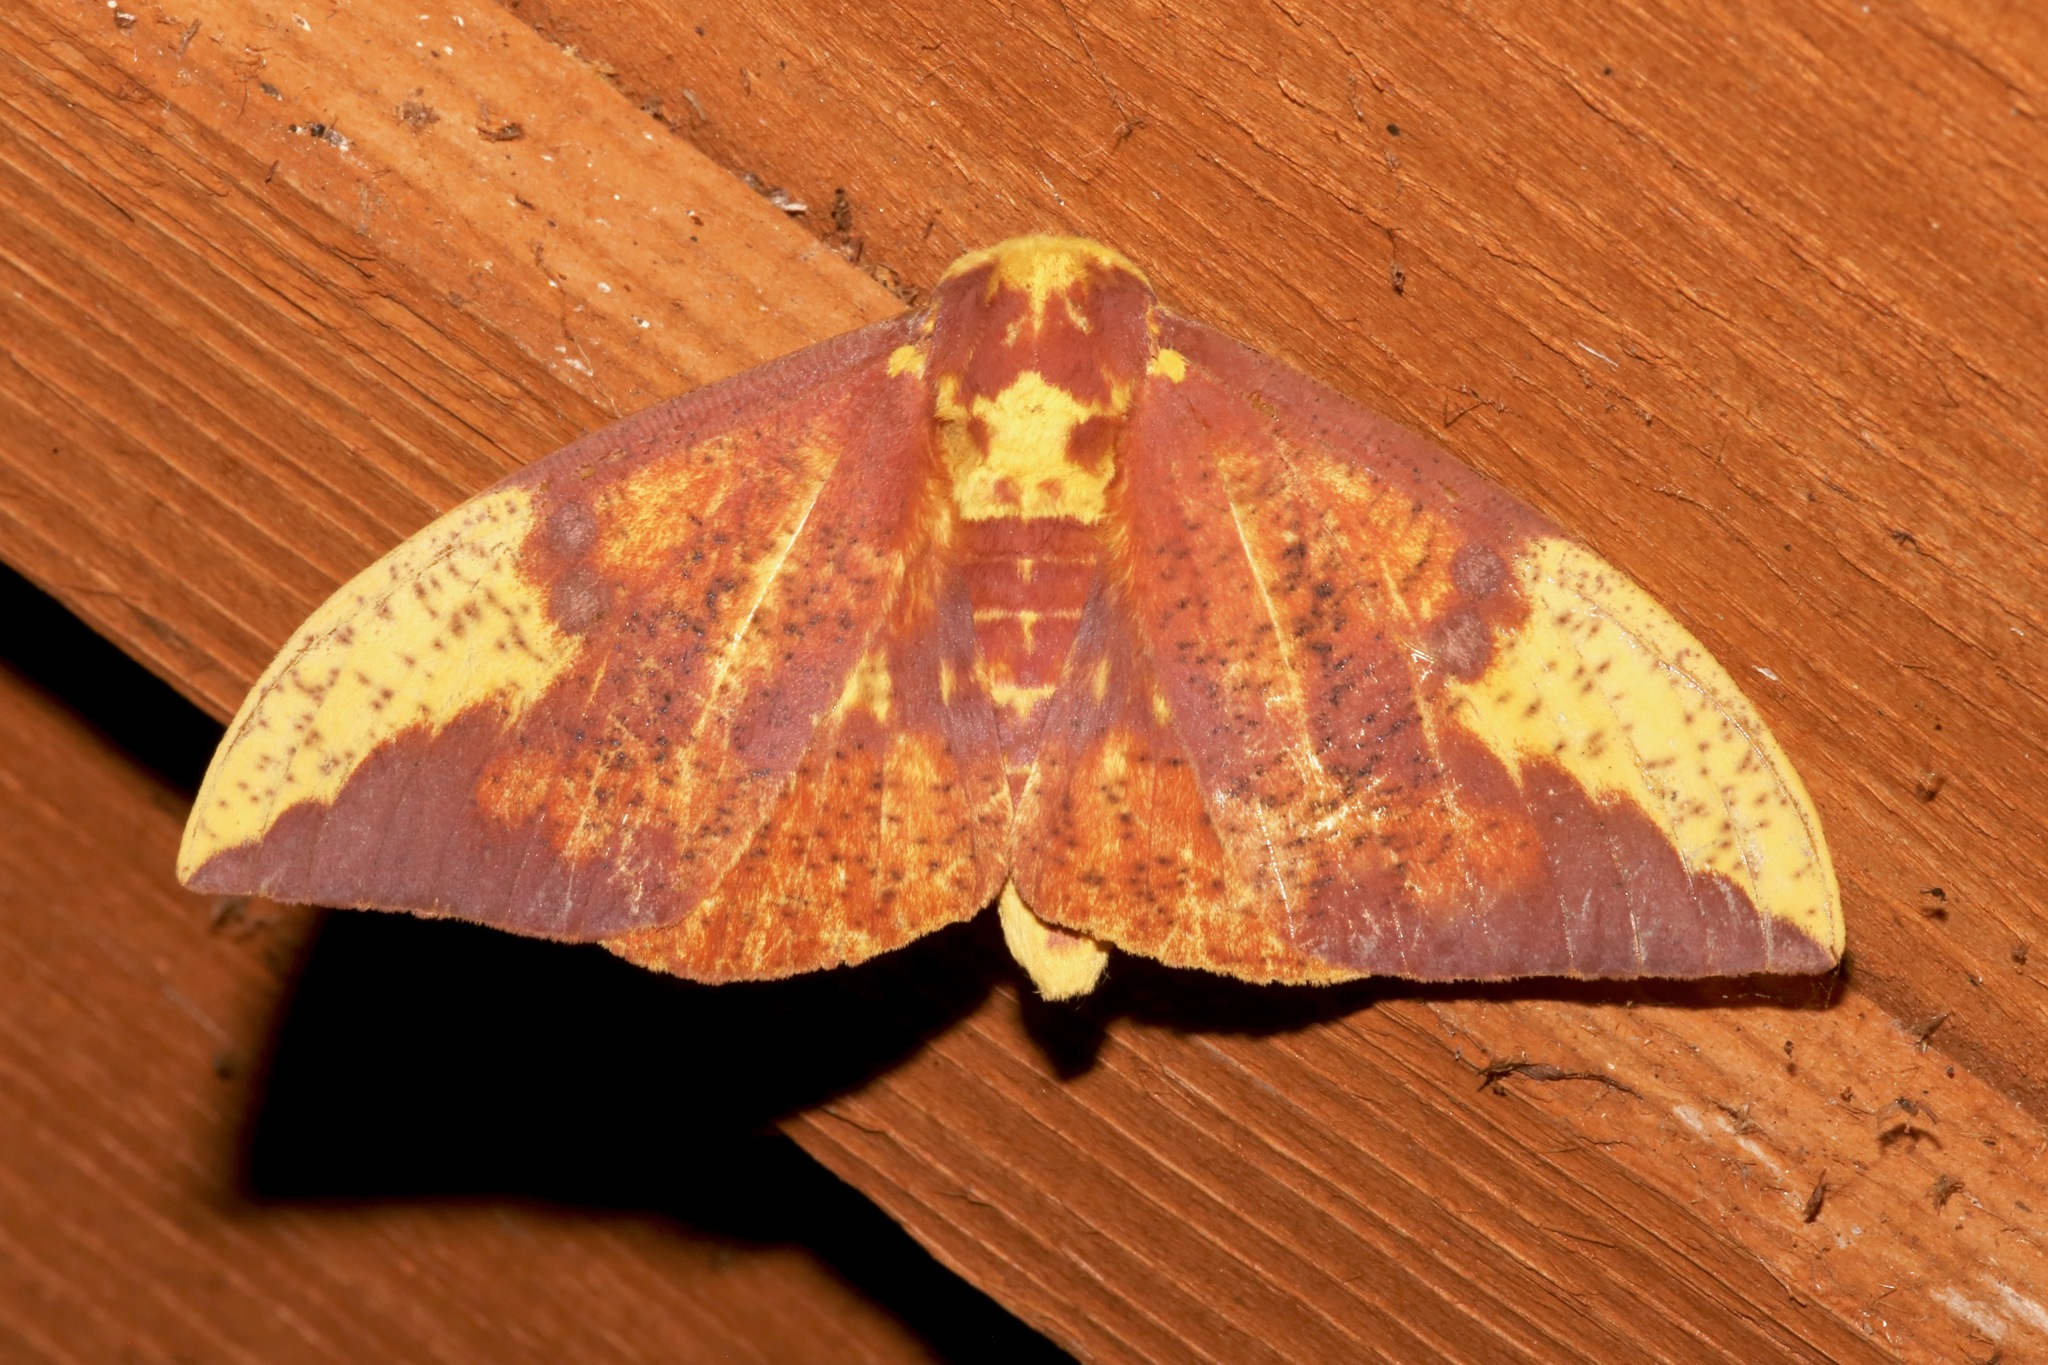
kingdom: Animalia
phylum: Arthropoda
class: Insecta
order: Lepidoptera
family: Saturniidae
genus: Eacles
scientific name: Eacles imperialis
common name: Imperial moth
